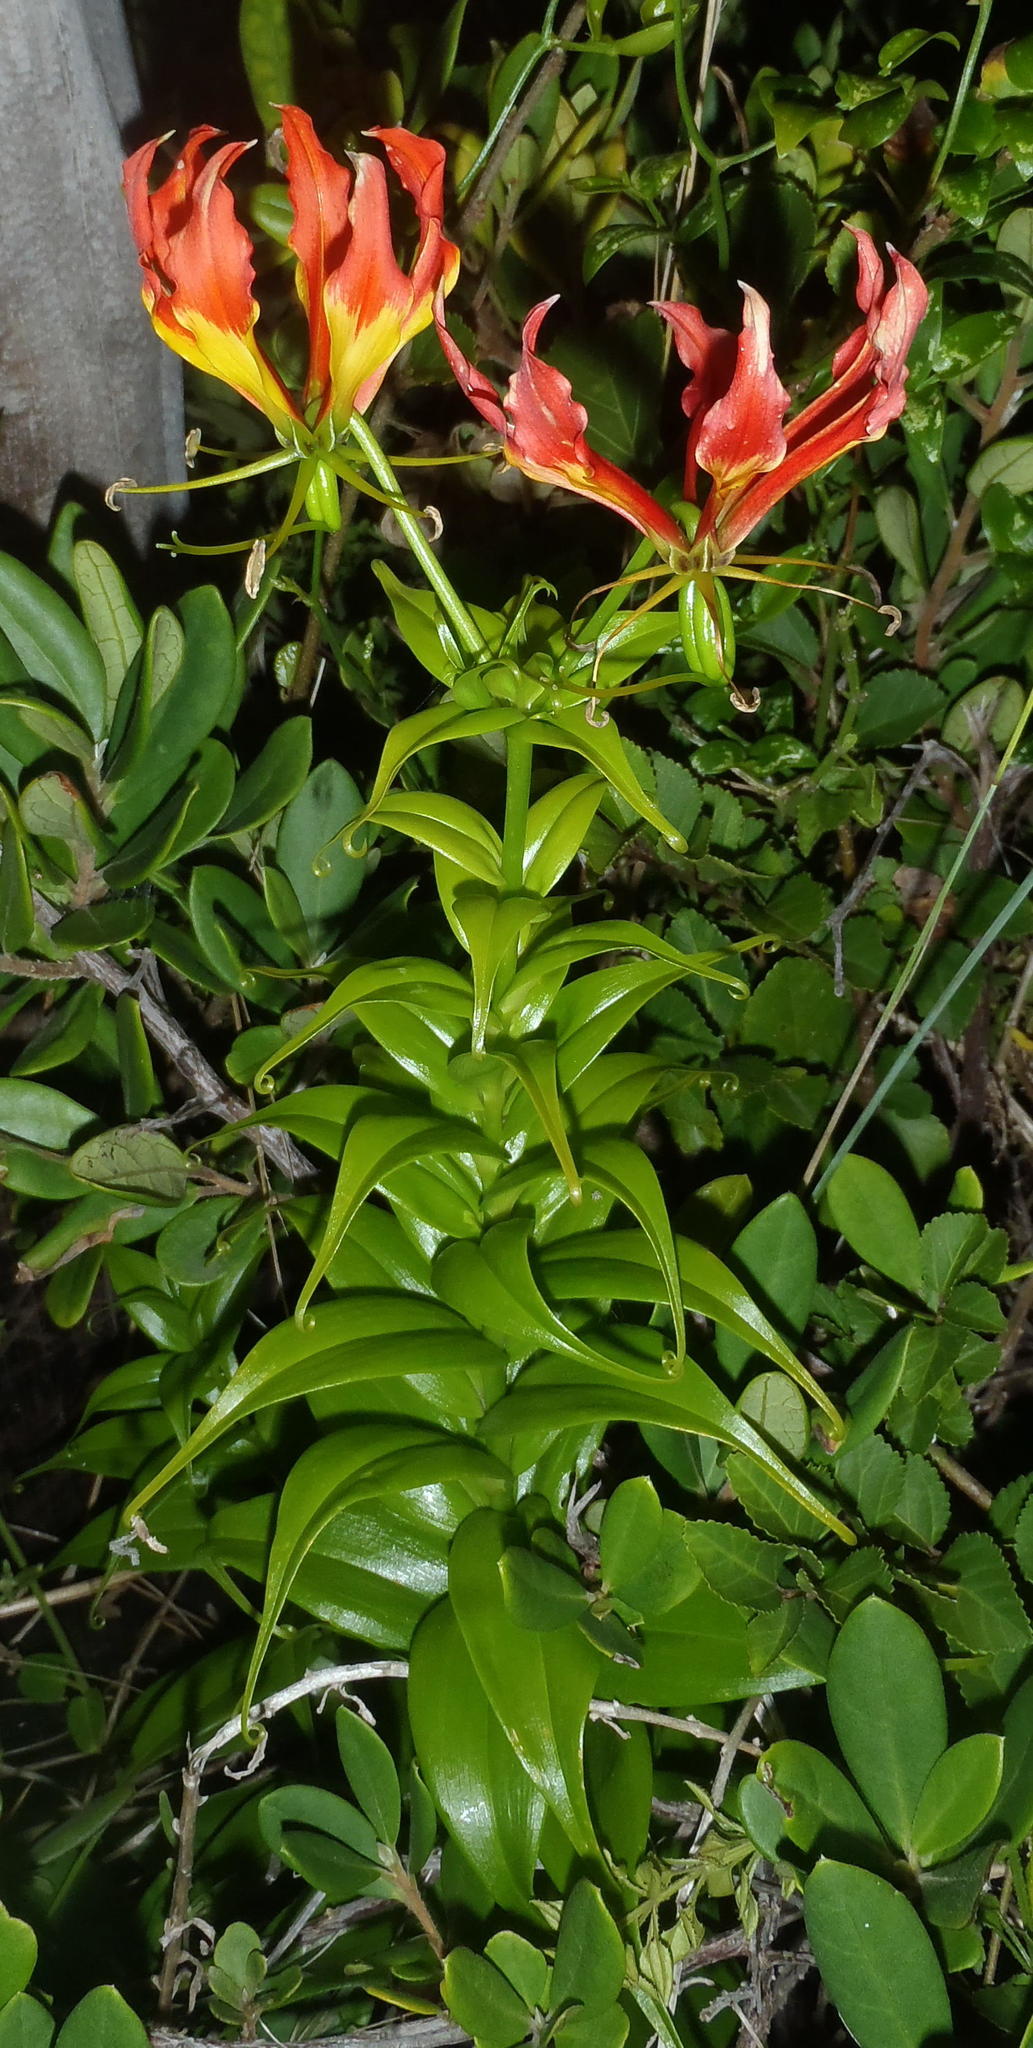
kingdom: Plantae
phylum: Tracheophyta
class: Liliopsida
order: Liliales
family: Colchicaceae
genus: Gloriosa
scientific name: Gloriosa superba
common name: Flame lily
